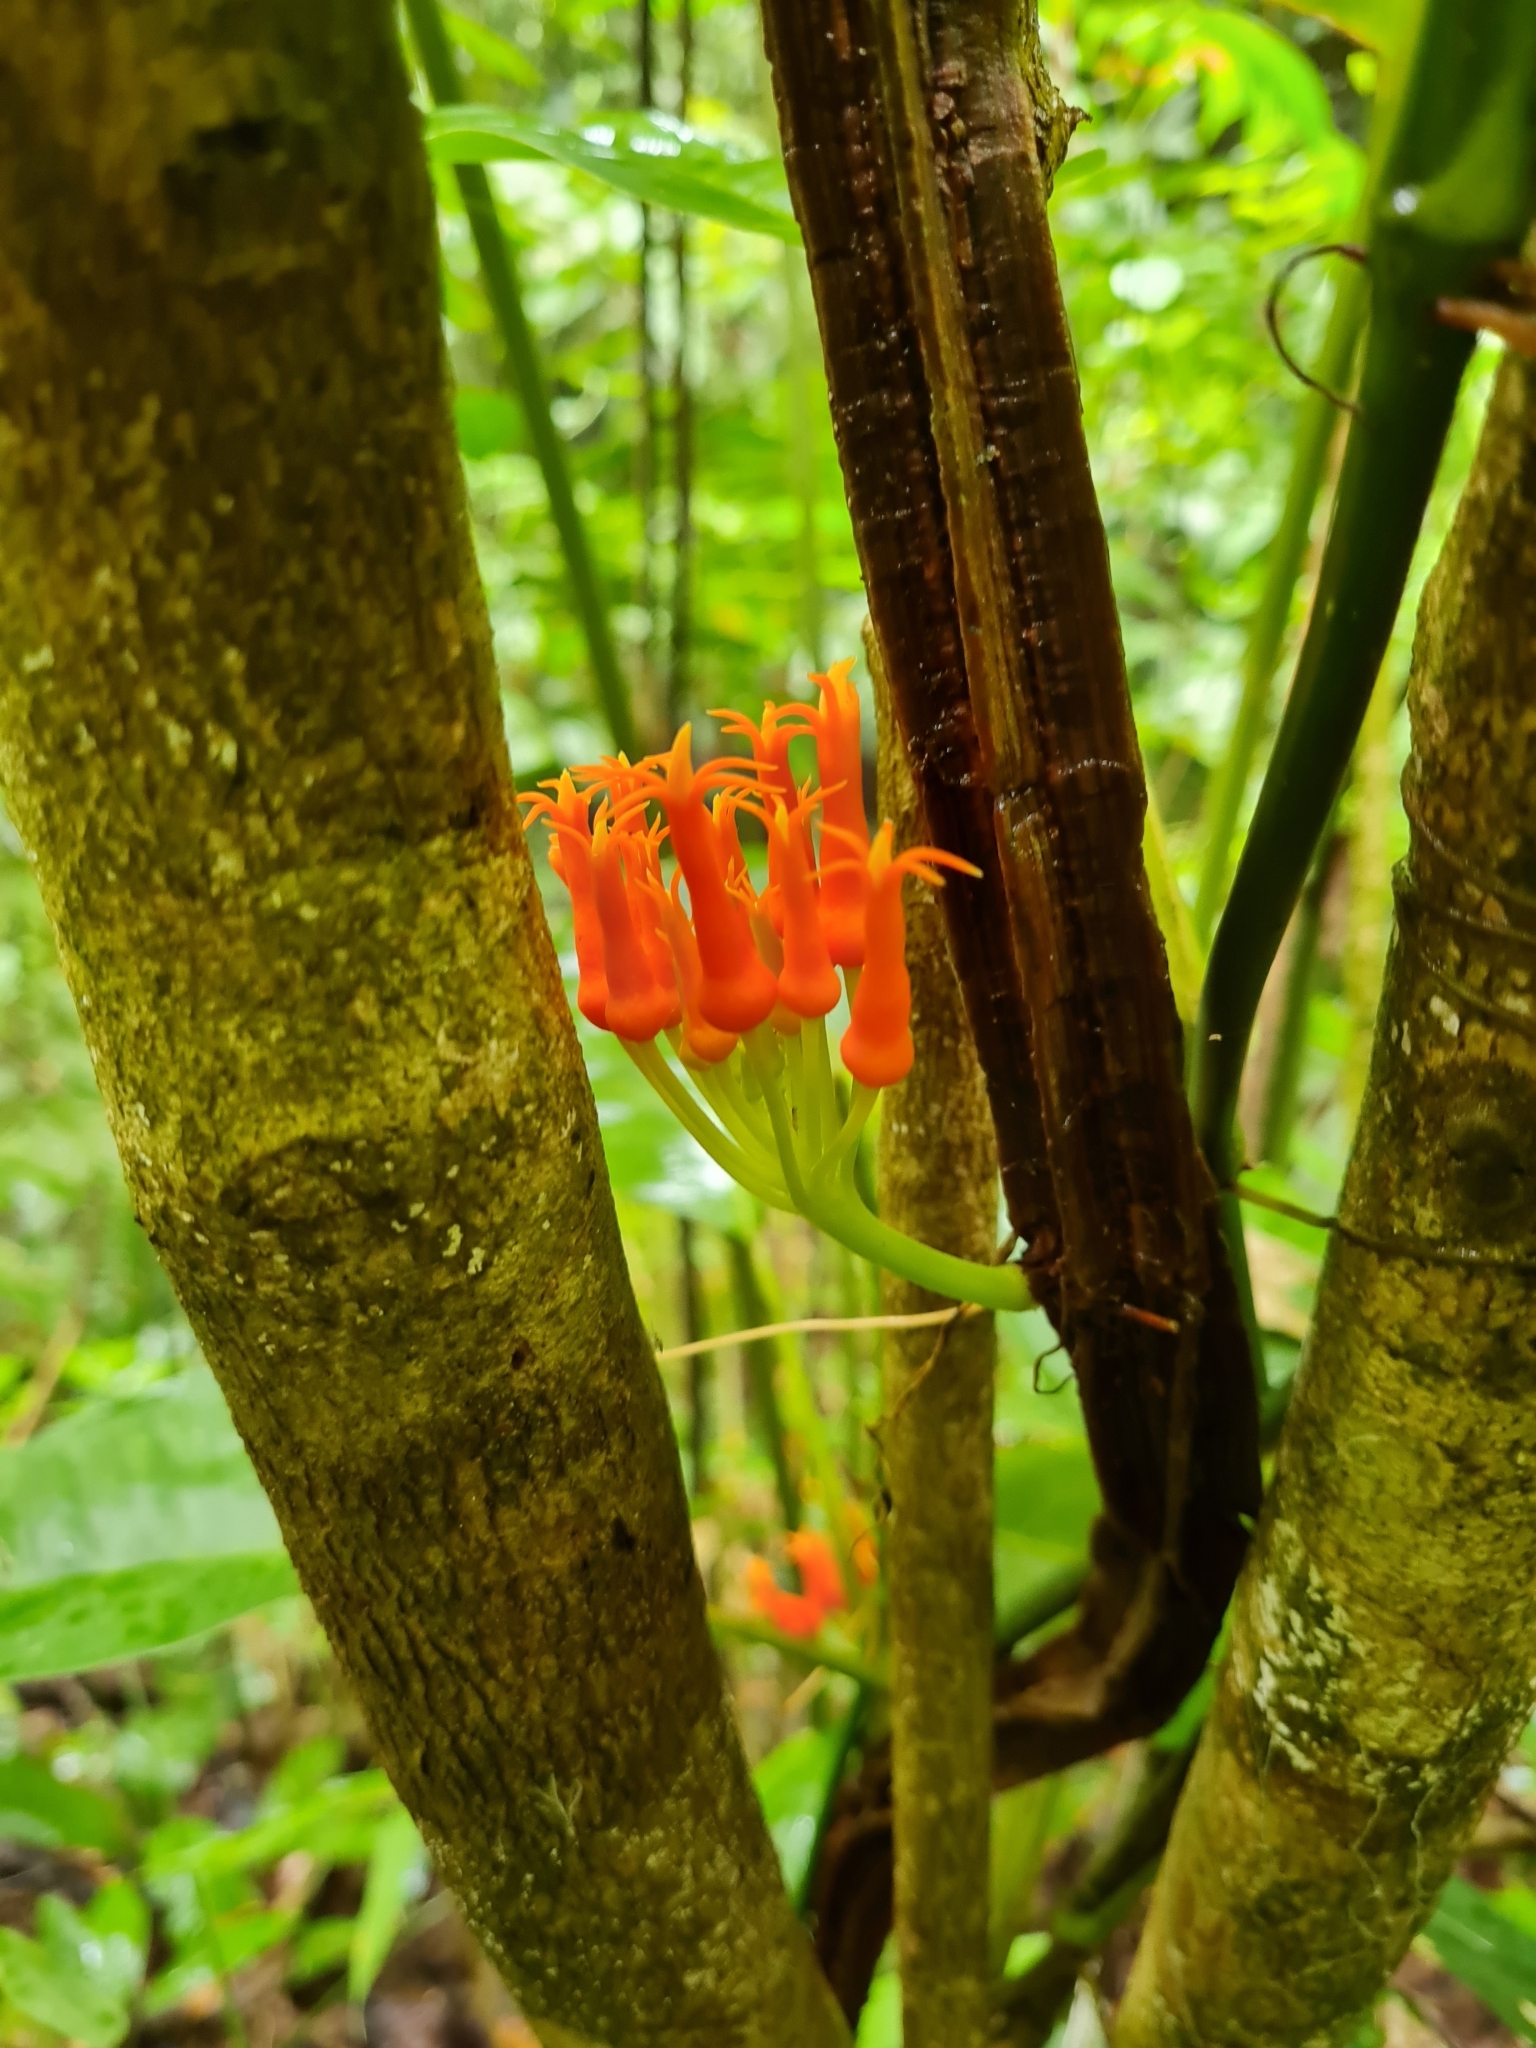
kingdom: Plantae
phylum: Tracheophyta
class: Magnoliopsida
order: Cucurbitales
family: Cucurbitaceae
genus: Gurania
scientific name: Gurania tubulosa
